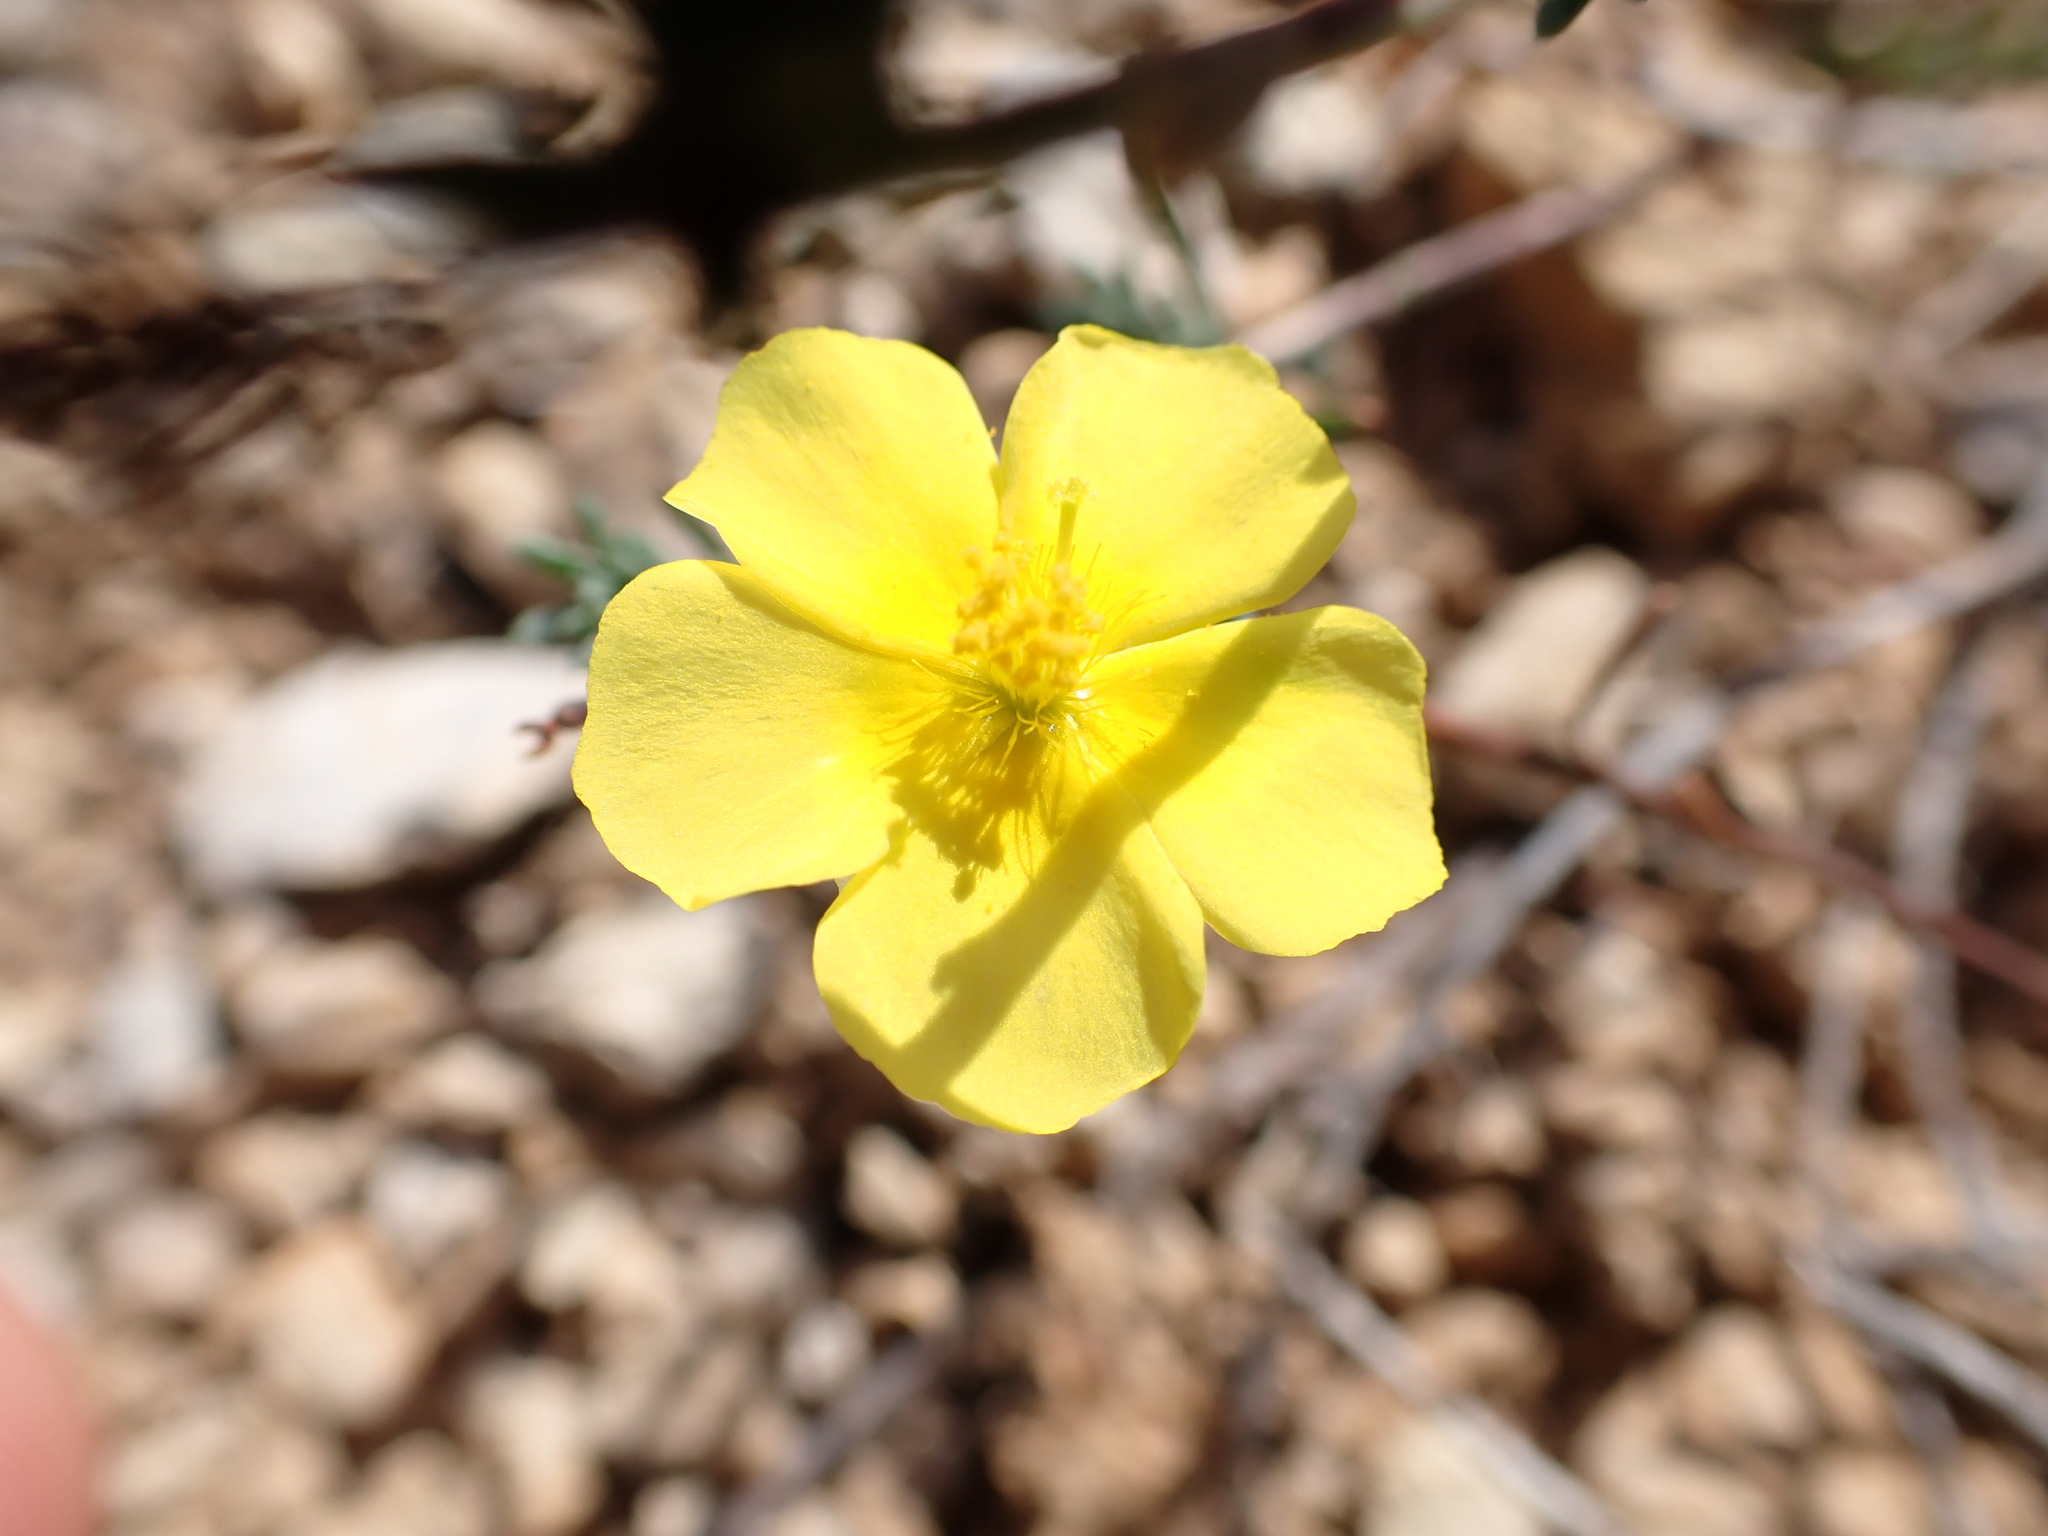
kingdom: Plantae
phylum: Tracheophyta
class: Magnoliopsida
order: Malvales
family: Cistaceae
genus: Fumana
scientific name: Fumana ericifolia
